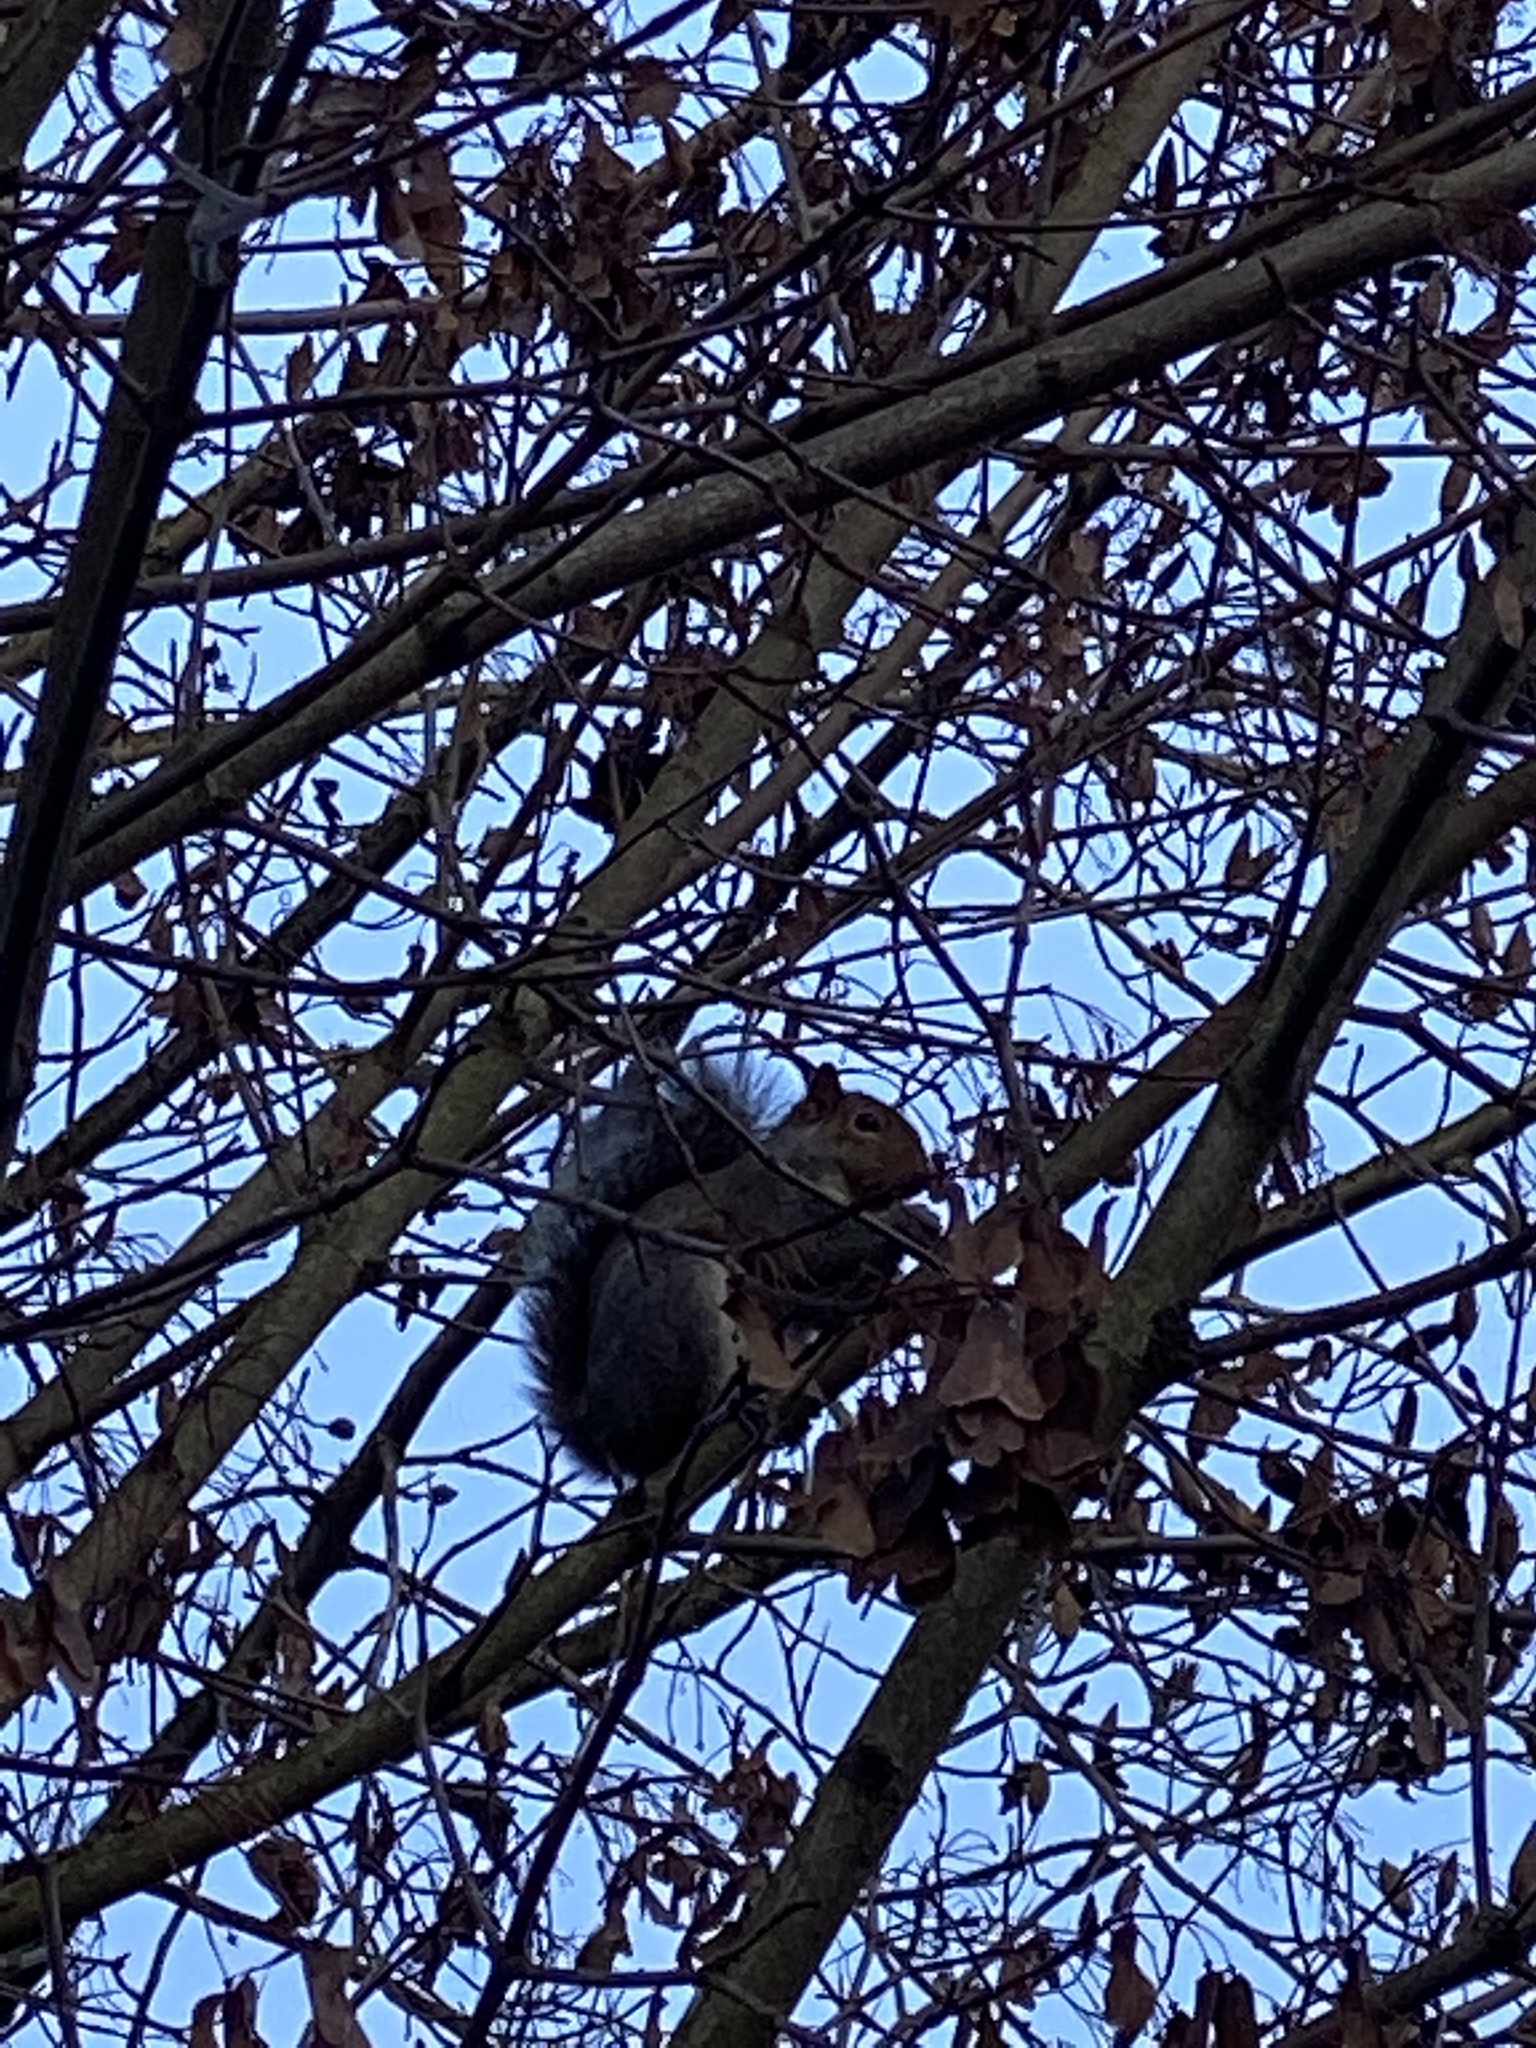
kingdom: Animalia
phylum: Chordata
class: Mammalia
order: Rodentia
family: Sciuridae
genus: Sciurus
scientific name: Sciurus carolinensis
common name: Eastern gray squirrel
